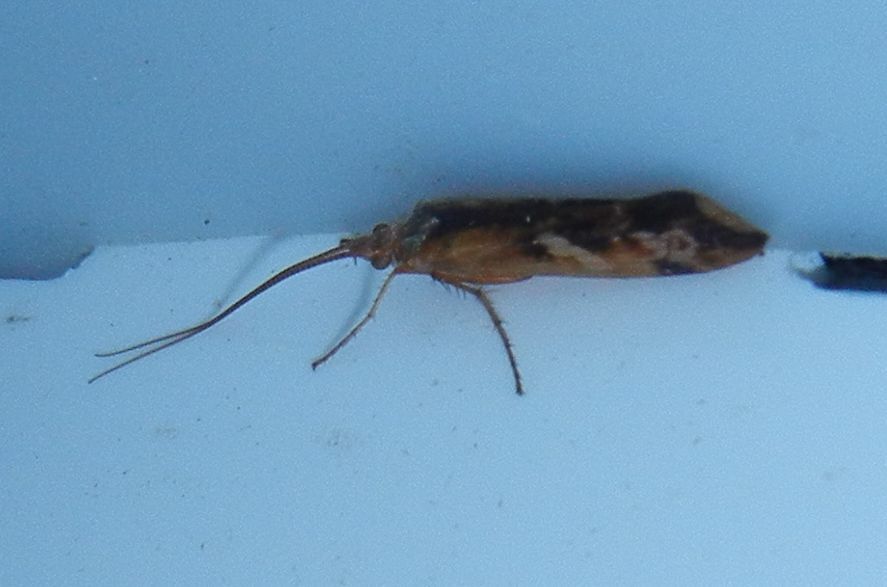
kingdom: Animalia
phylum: Arthropoda
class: Insecta
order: Trichoptera
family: Limnephilidae
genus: Limnephilus
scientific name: Limnephilus lunatus
